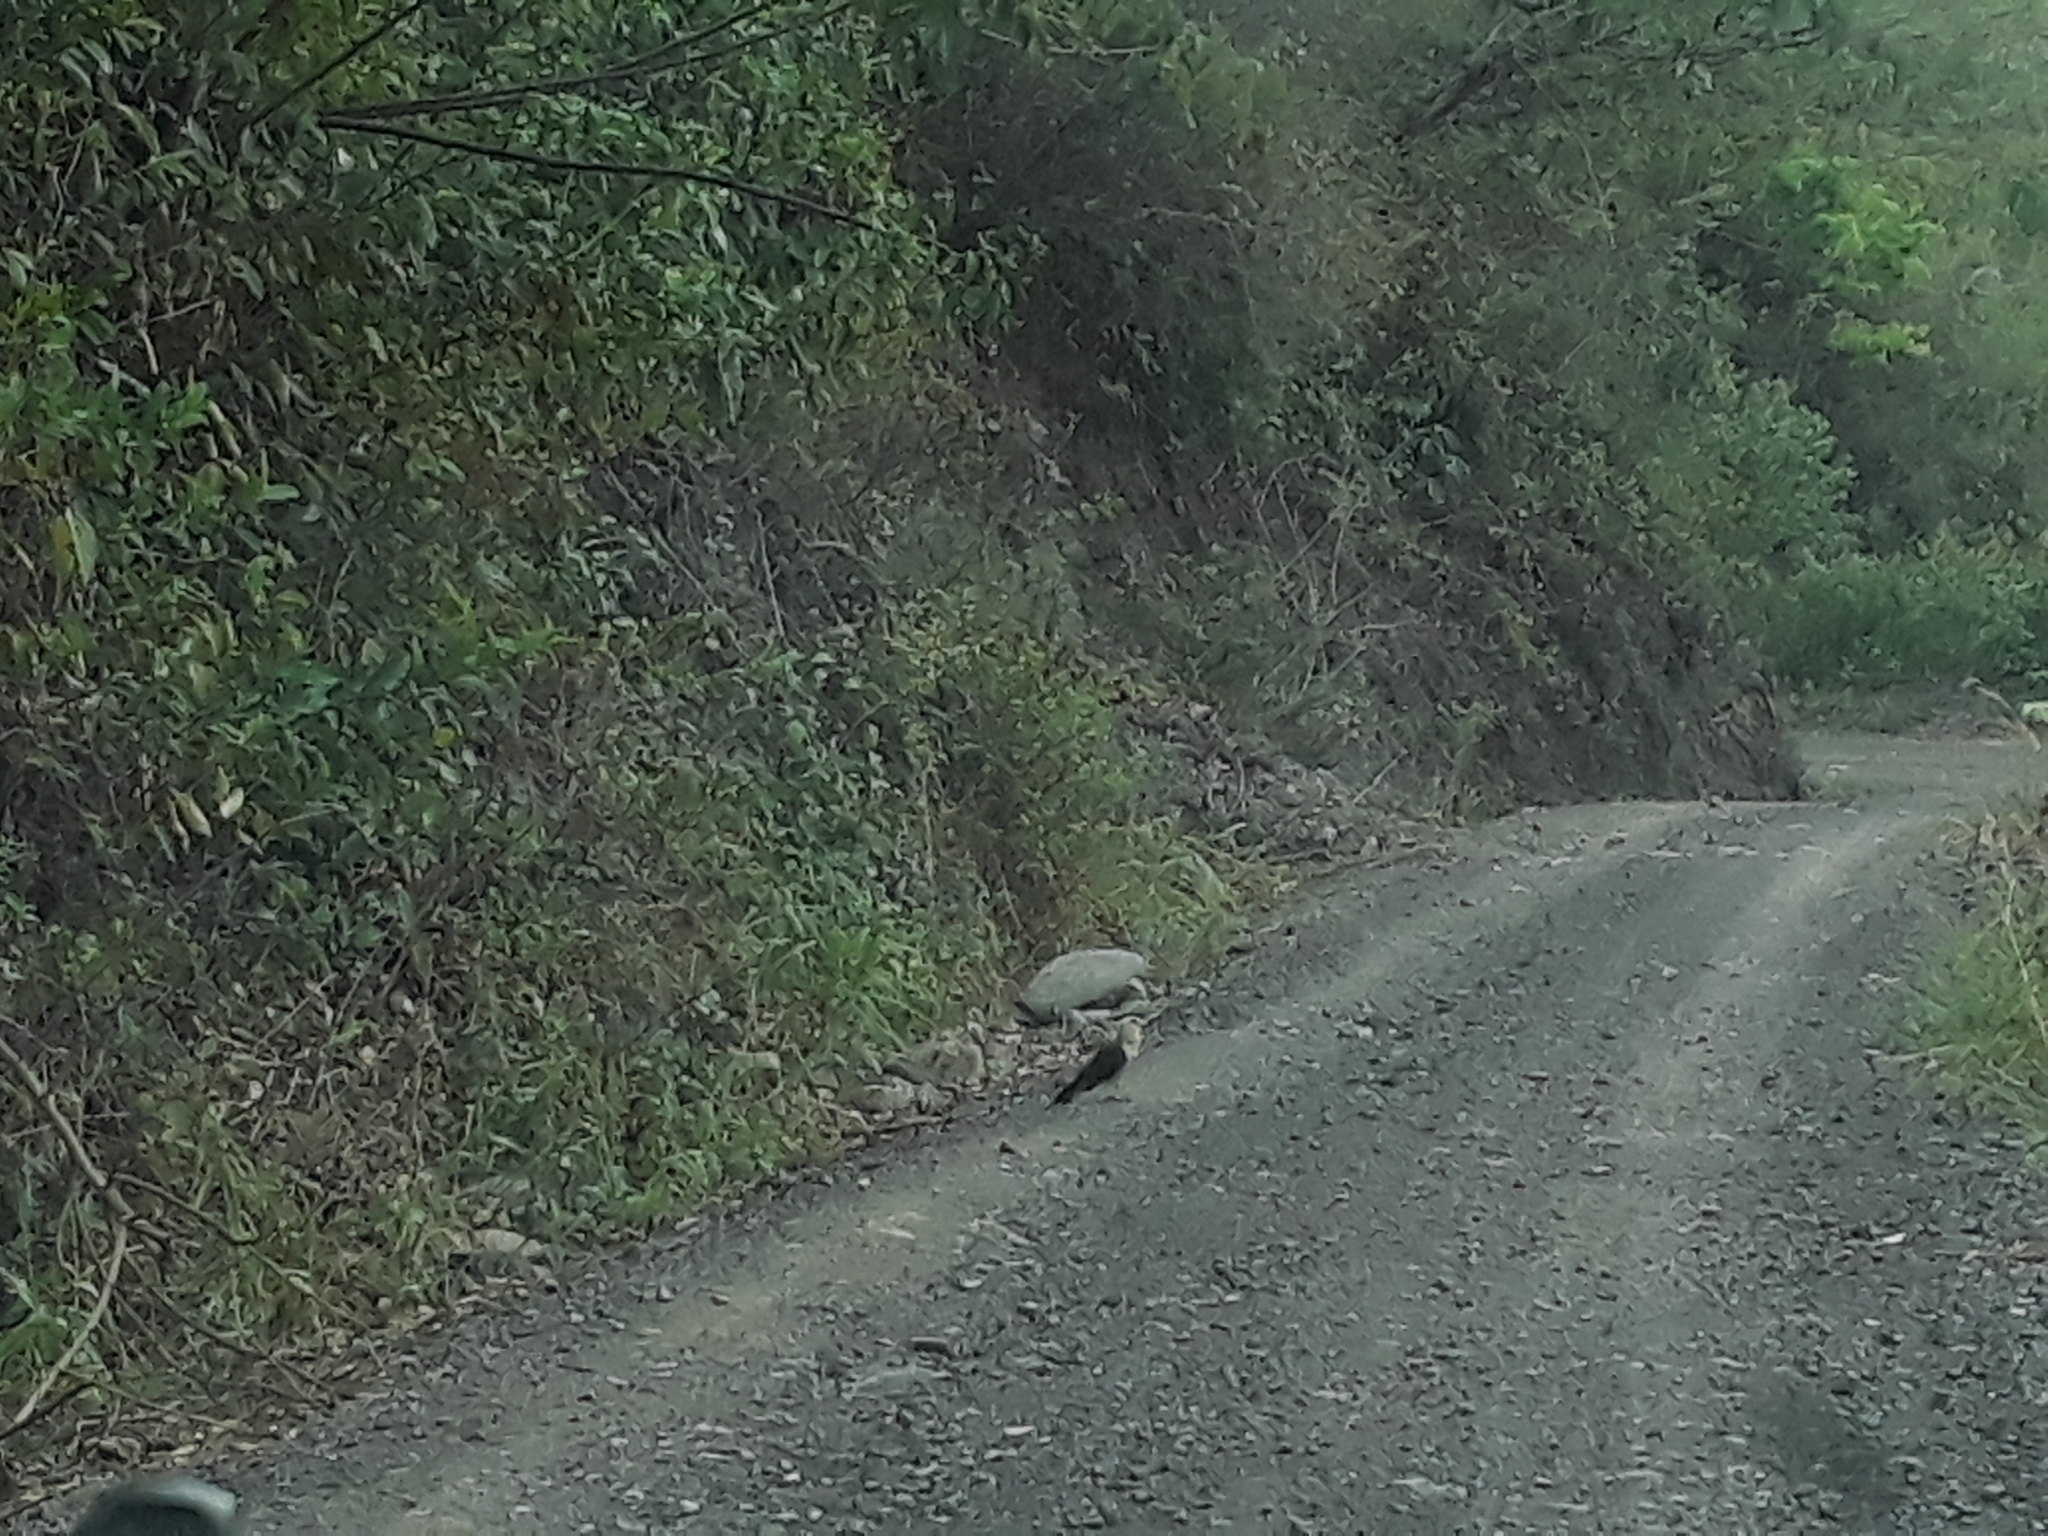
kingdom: Animalia
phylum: Chordata
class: Aves
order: Falconiformes
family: Falconidae
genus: Daptrius
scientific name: Daptrius
